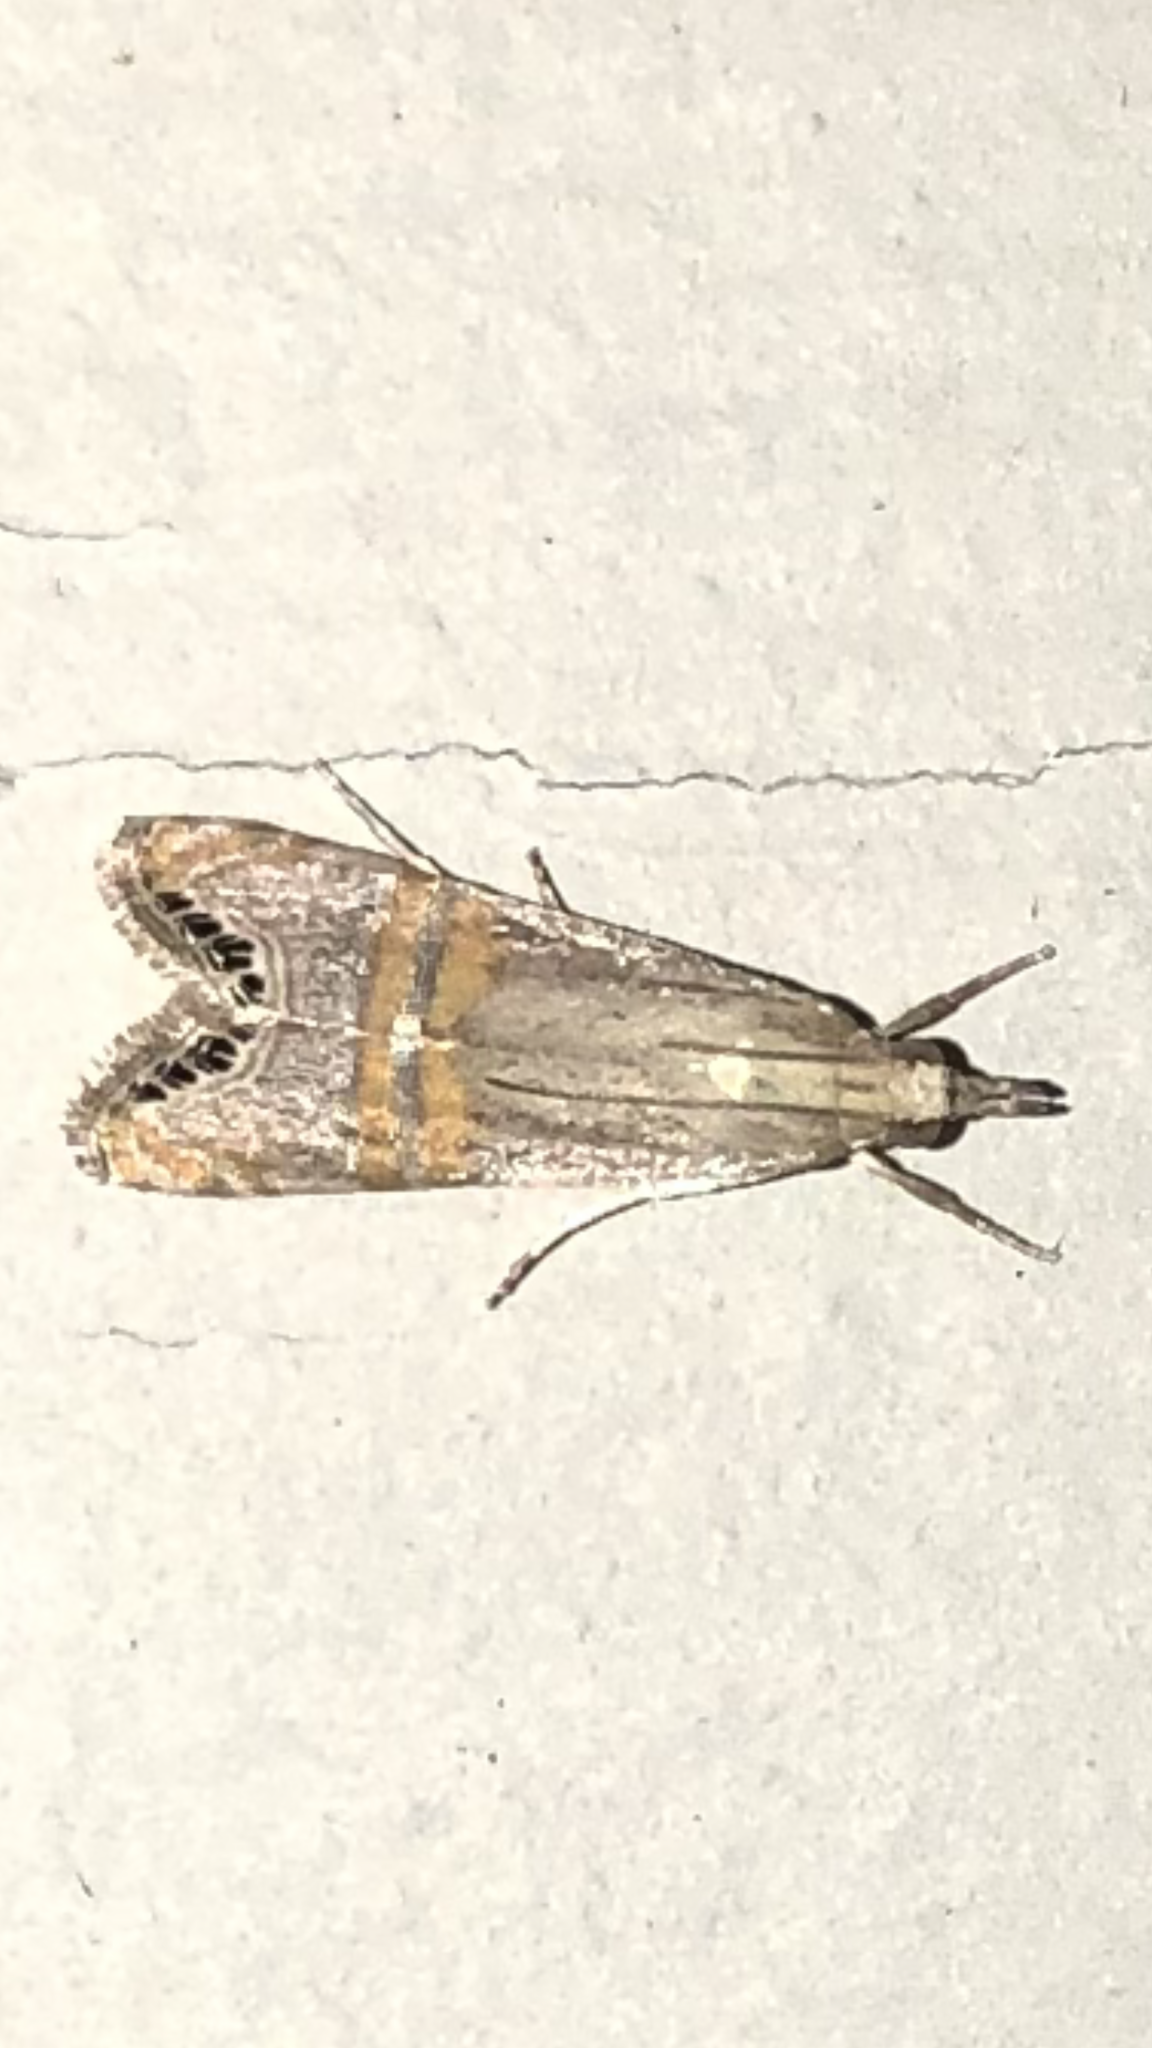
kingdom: Animalia
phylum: Arthropoda
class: Insecta
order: Lepidoptera
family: Crambidae
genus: Euchromius
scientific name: Euchromius ocellea
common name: Necklace veneer moth
